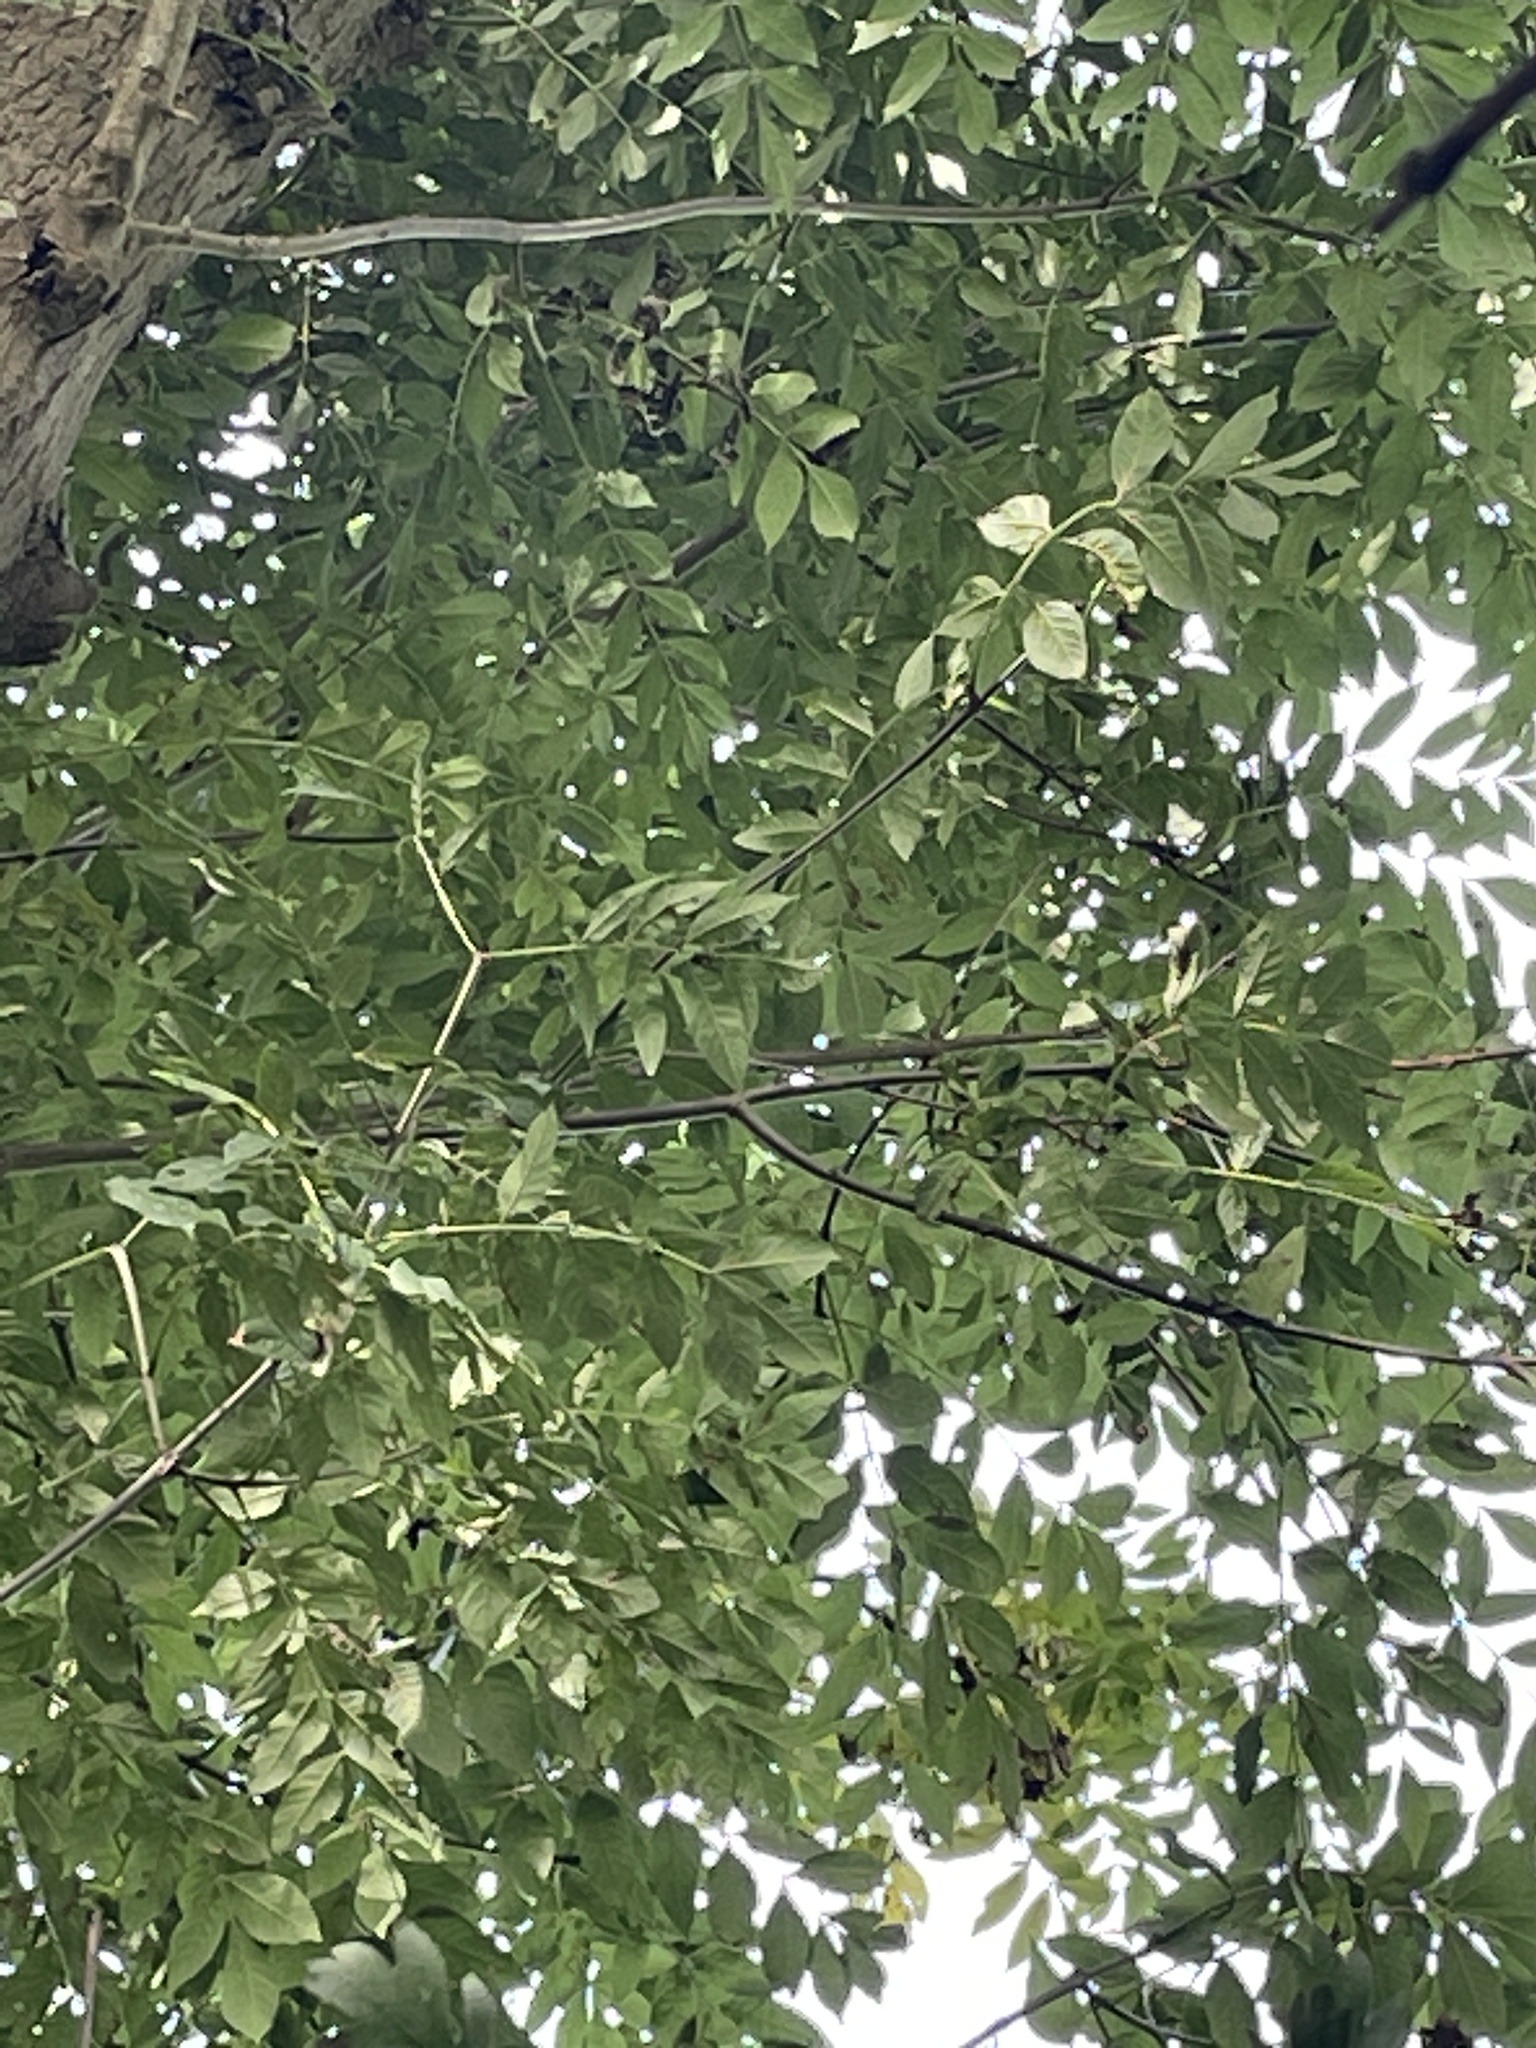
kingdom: Plantae
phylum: Tracheophyta
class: Magnoliopsida
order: Lamiales
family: Oleaceae
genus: Fraxinus
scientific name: Fraxinus excelsior
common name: European ash
